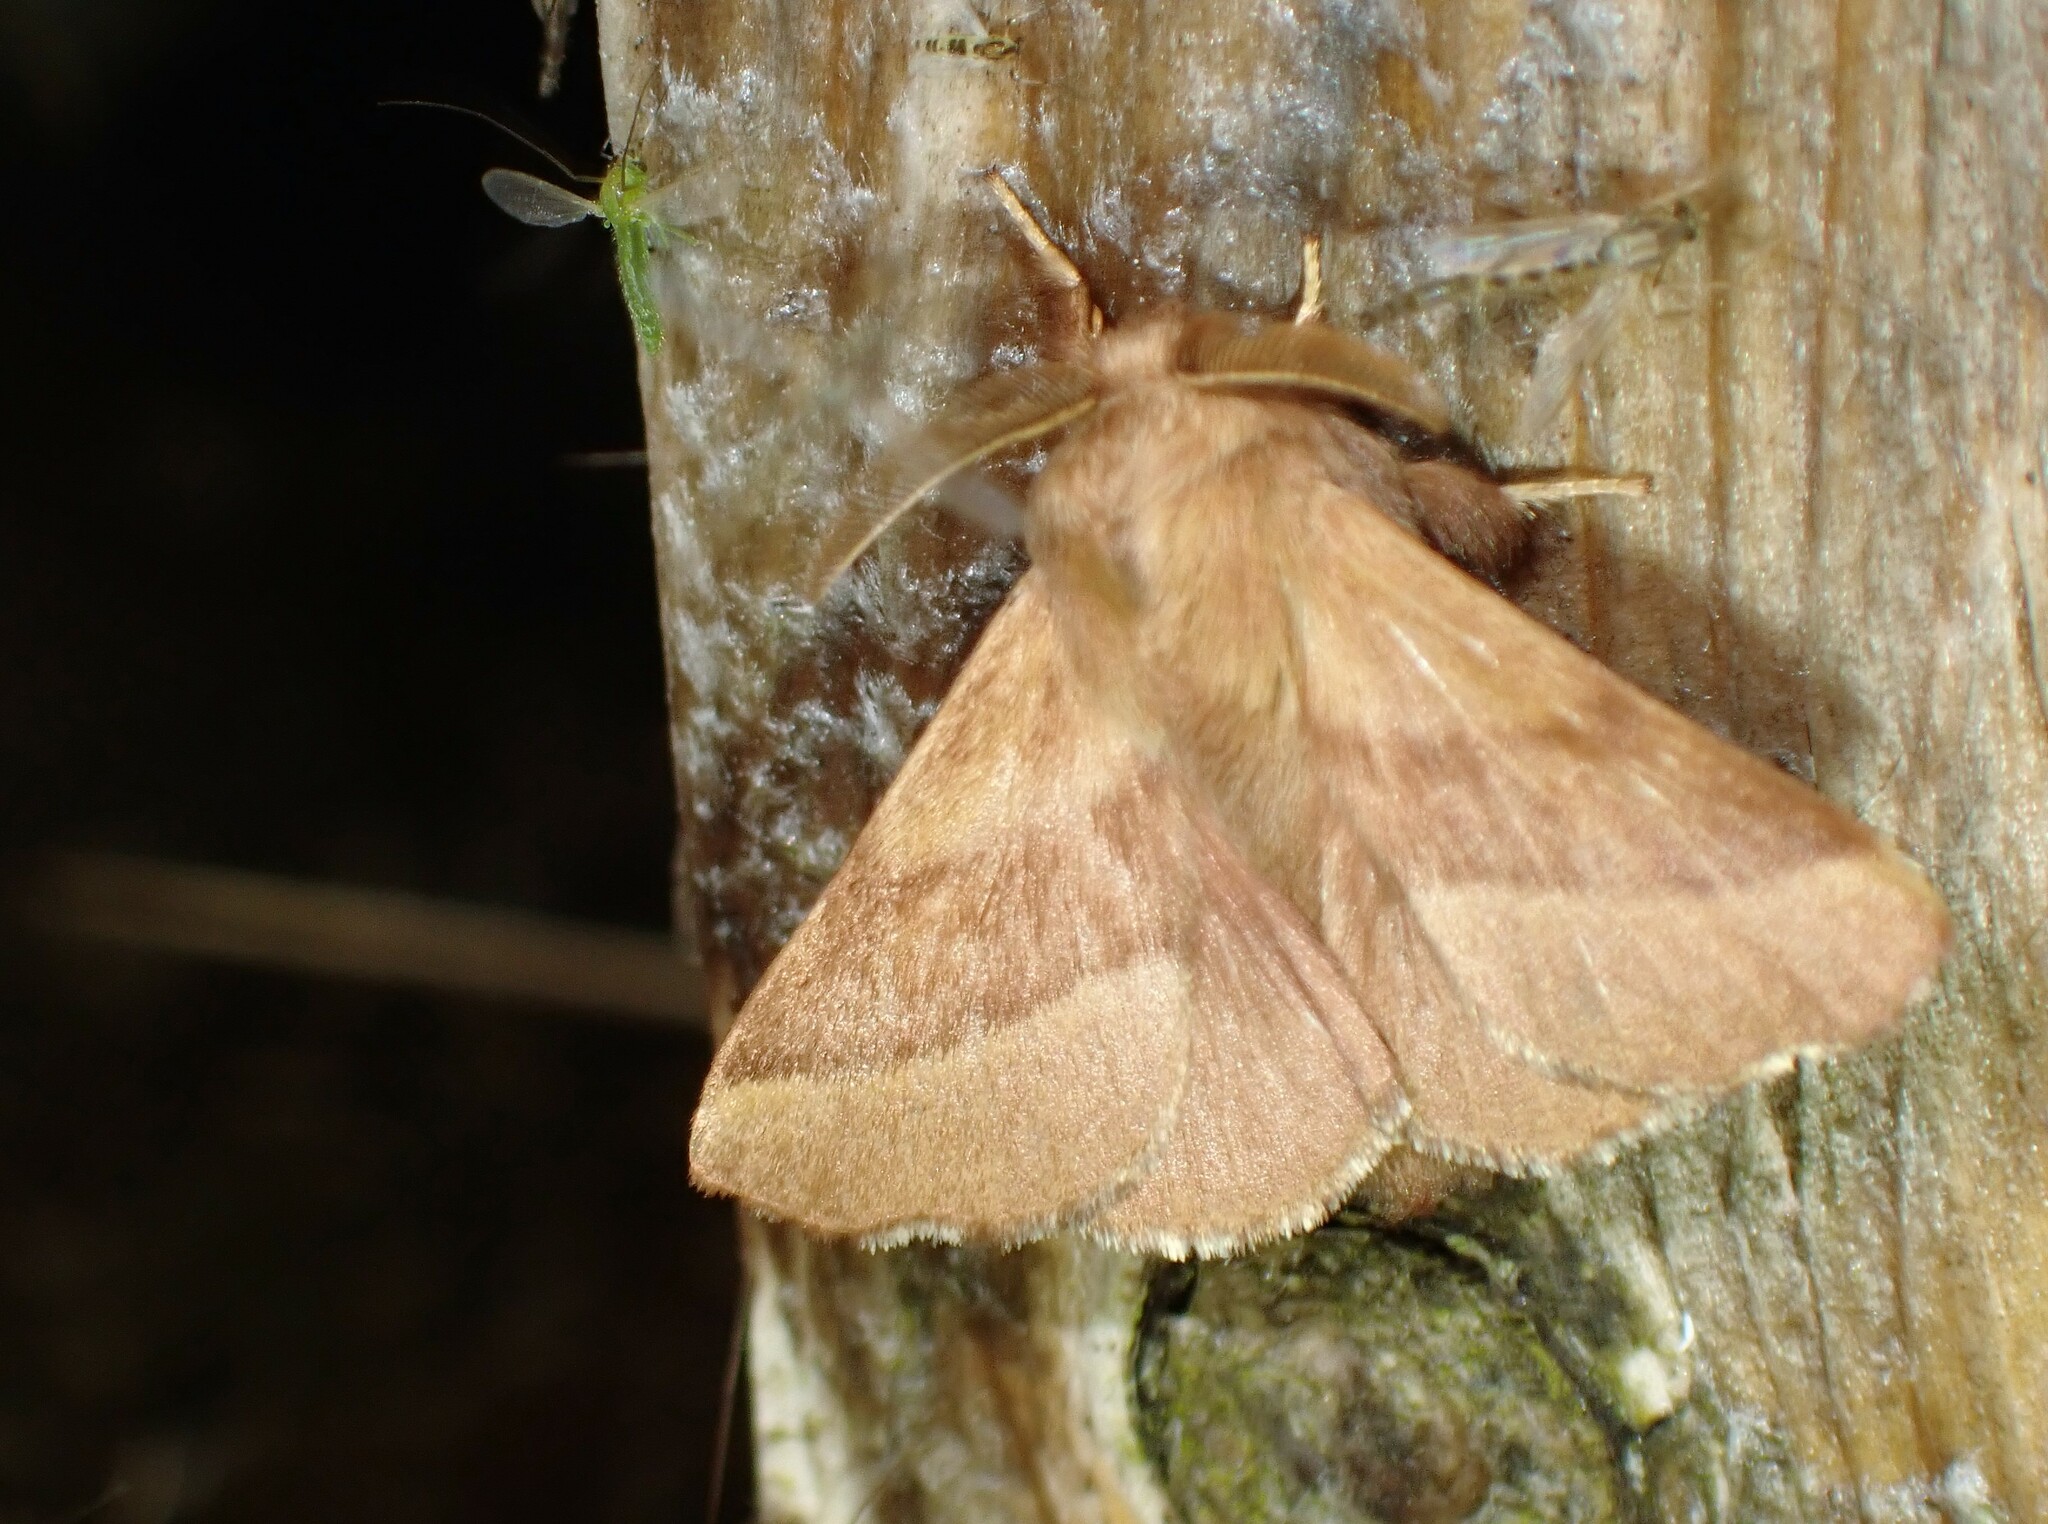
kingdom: Animalia
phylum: Arthropoda
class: Insecta
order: Lepidoptera
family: Lasiocampidae
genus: Malacosoma
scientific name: Malacosoma disstria
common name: Forest tent caterpillar
